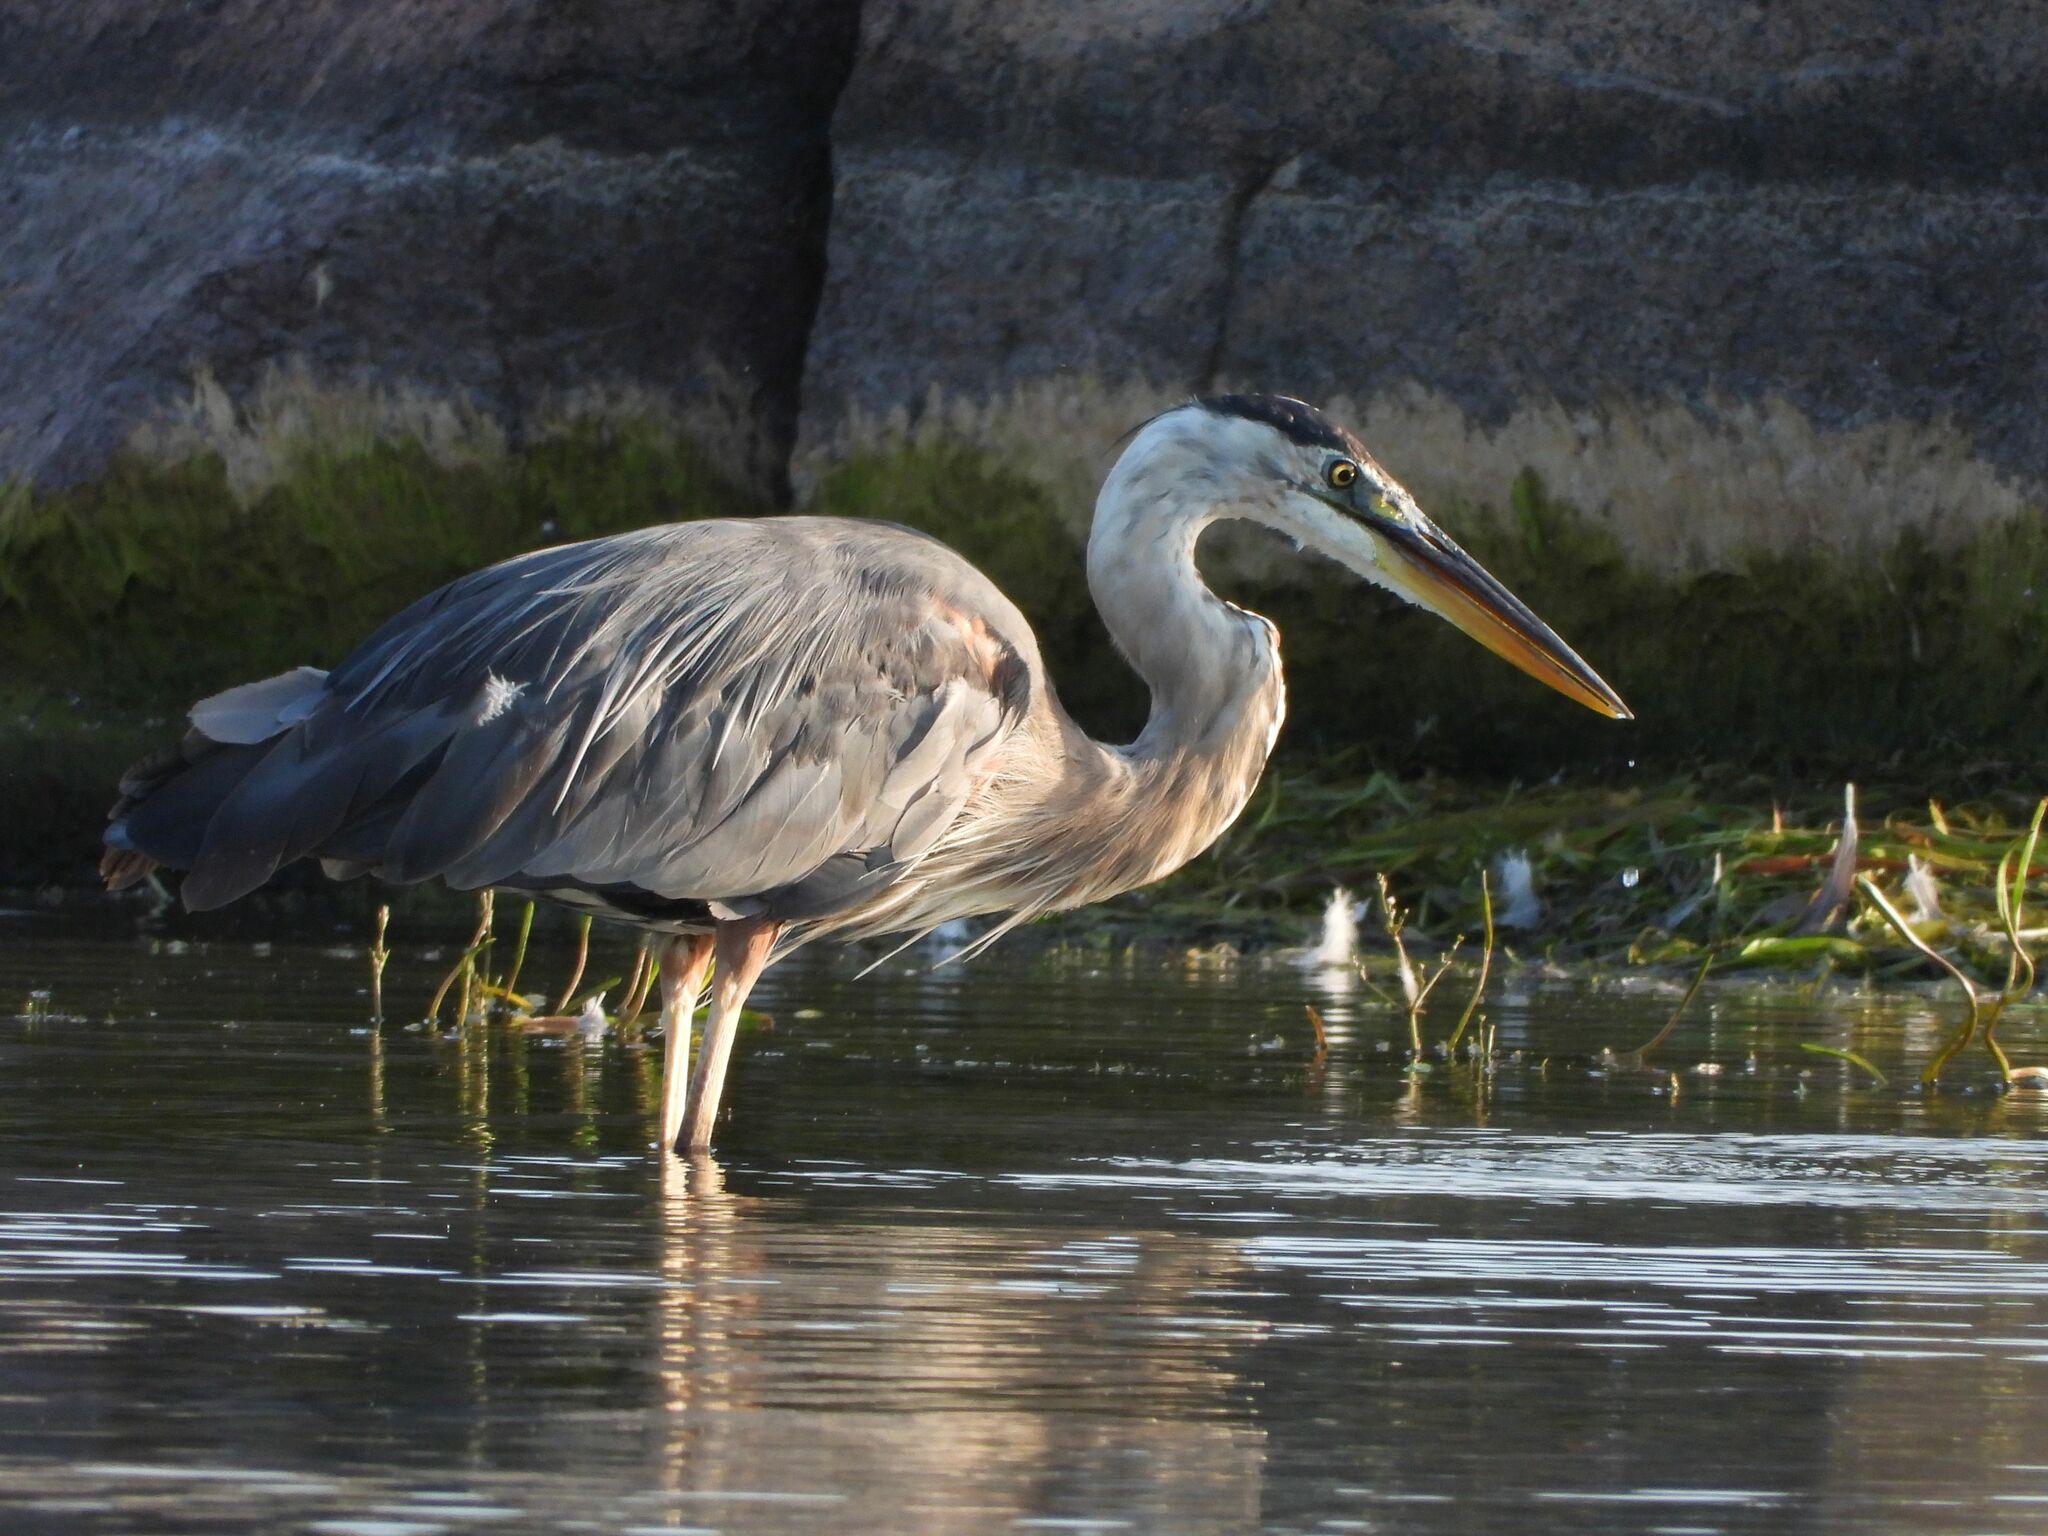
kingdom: Animalia
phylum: Chordata
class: Aves
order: Pelecaniformes
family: Ardeidae
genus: Ardea
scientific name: Ardea herodias
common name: Great blue heron
